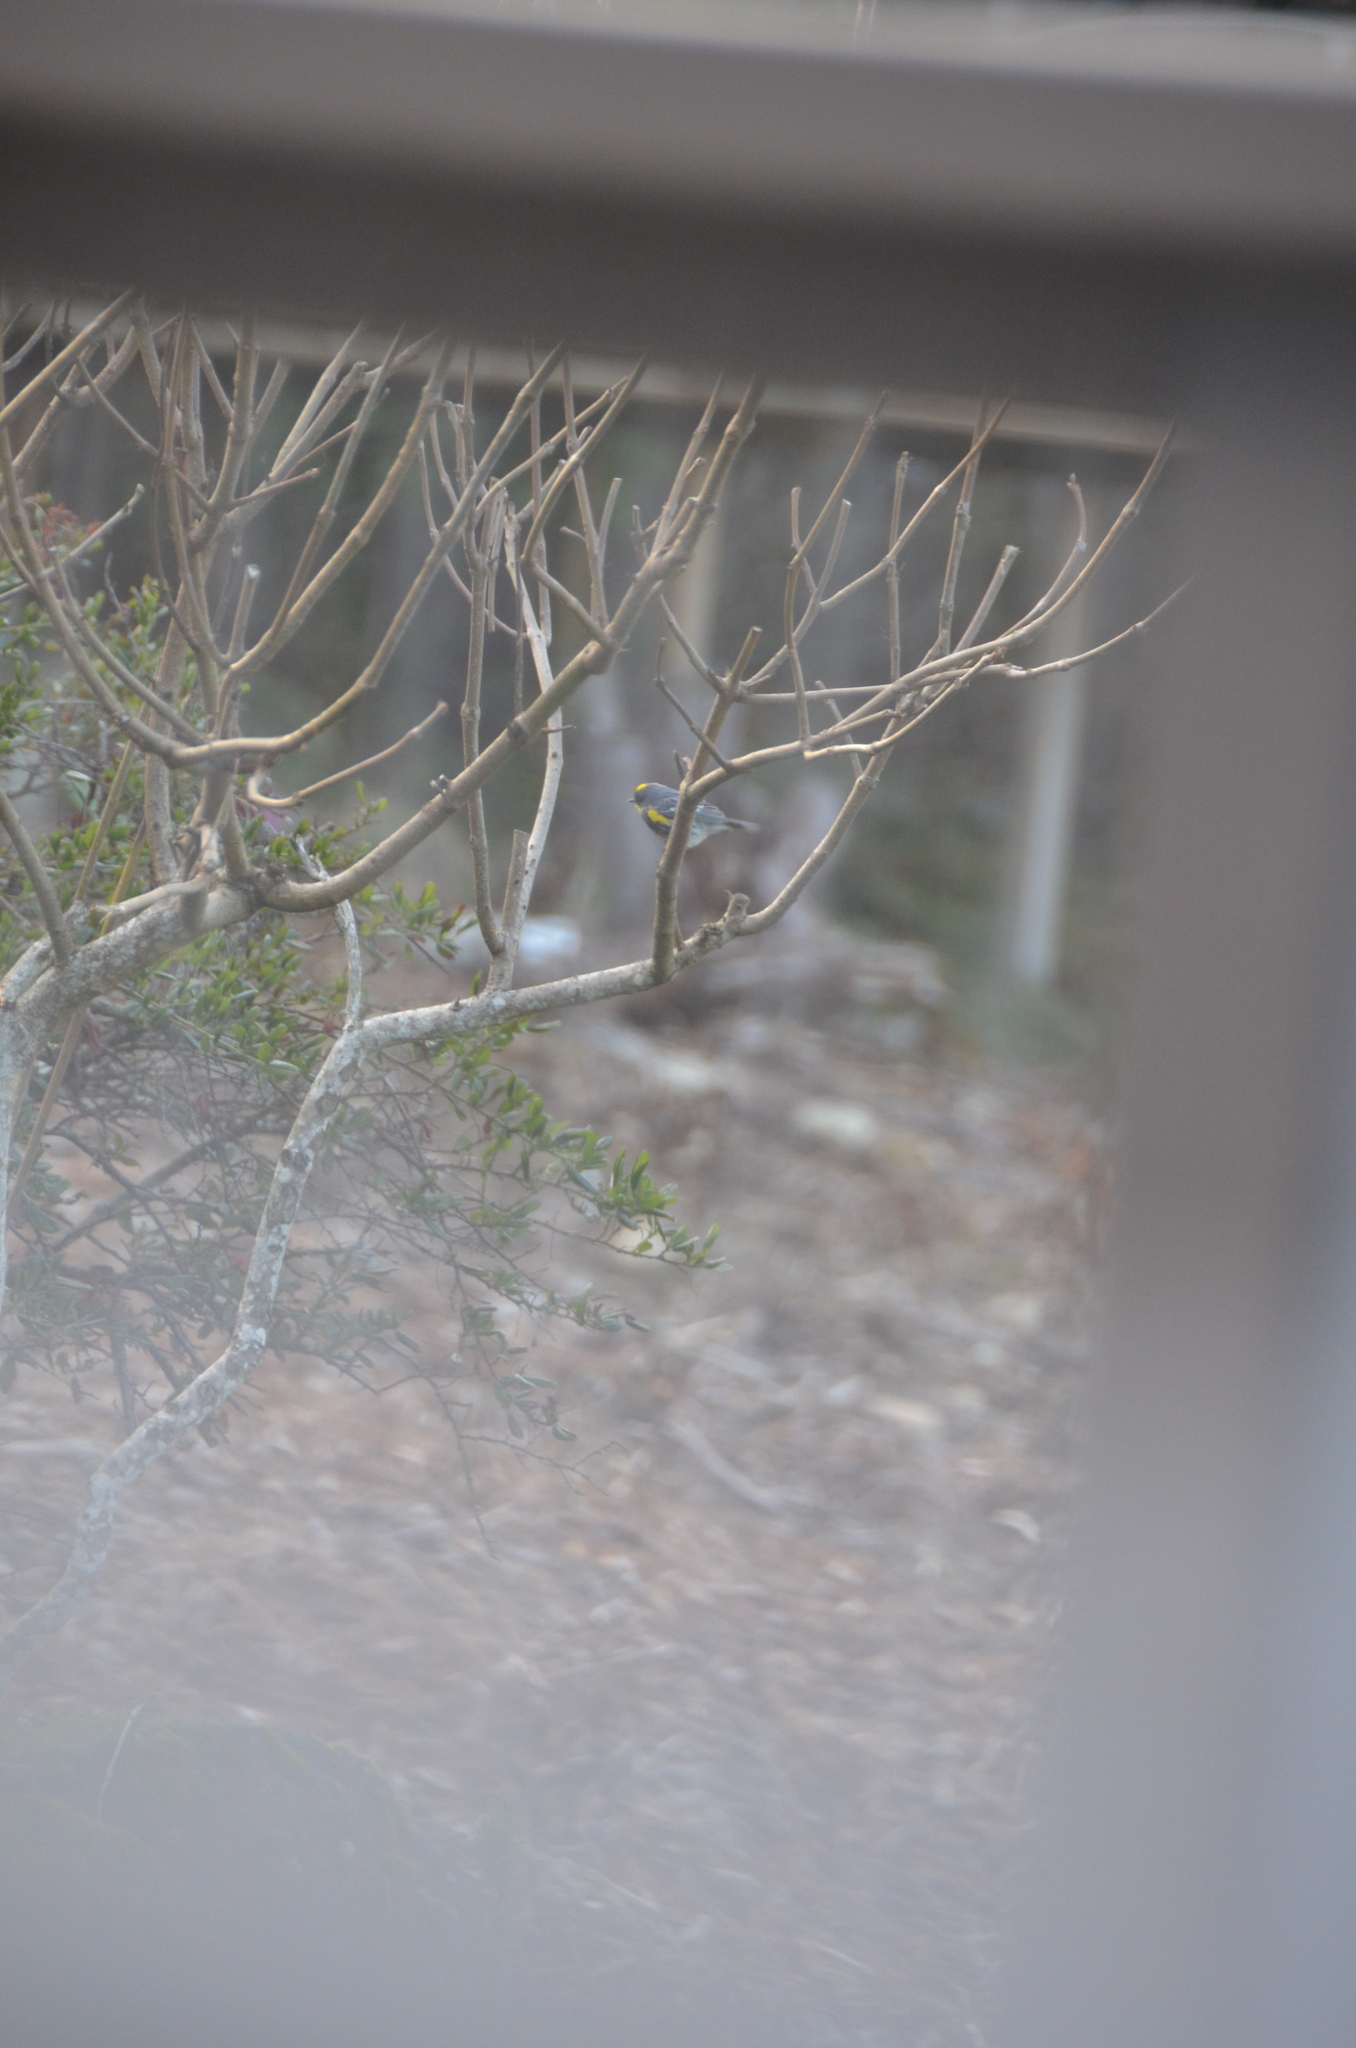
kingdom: Animalia
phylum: Chordata
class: Aves
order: Passeriformes
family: Parulidae
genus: Setophaga
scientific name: Setophaga auduboni
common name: Audubon's warbler
